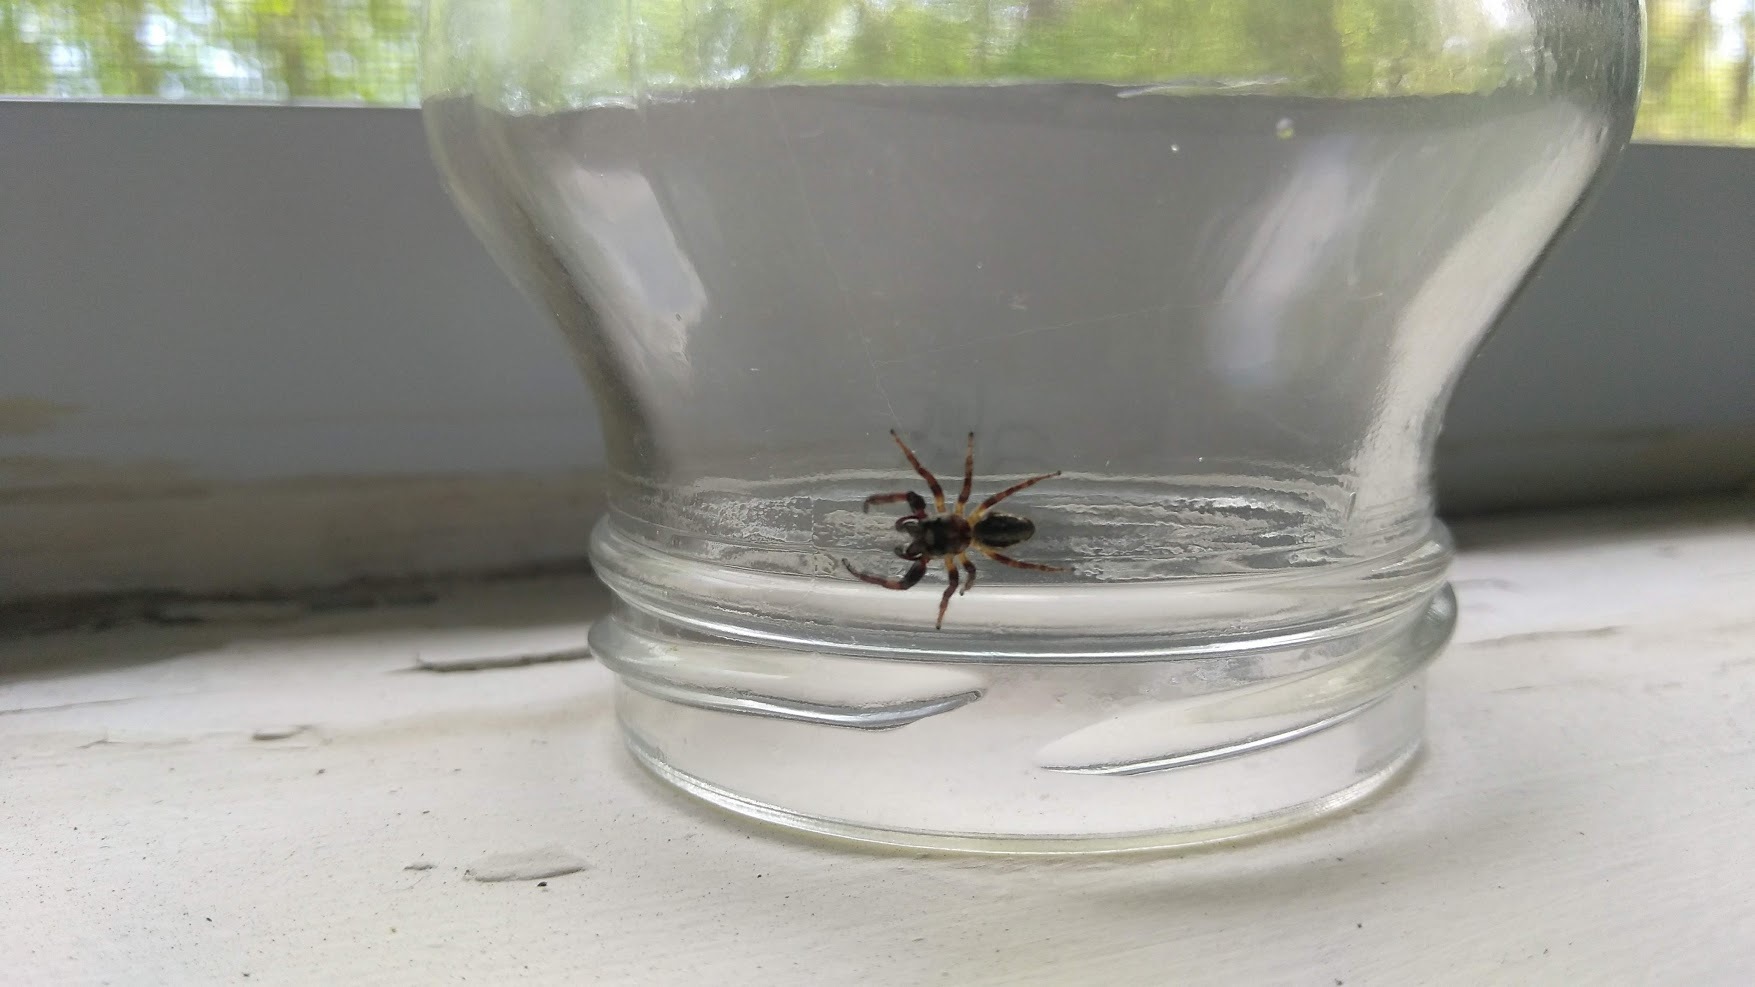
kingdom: Animalia
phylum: Arthropoda
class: Arachnida
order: Araneae
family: Salticidae
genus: Eris
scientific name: Eris militaris
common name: Bronze jumper
